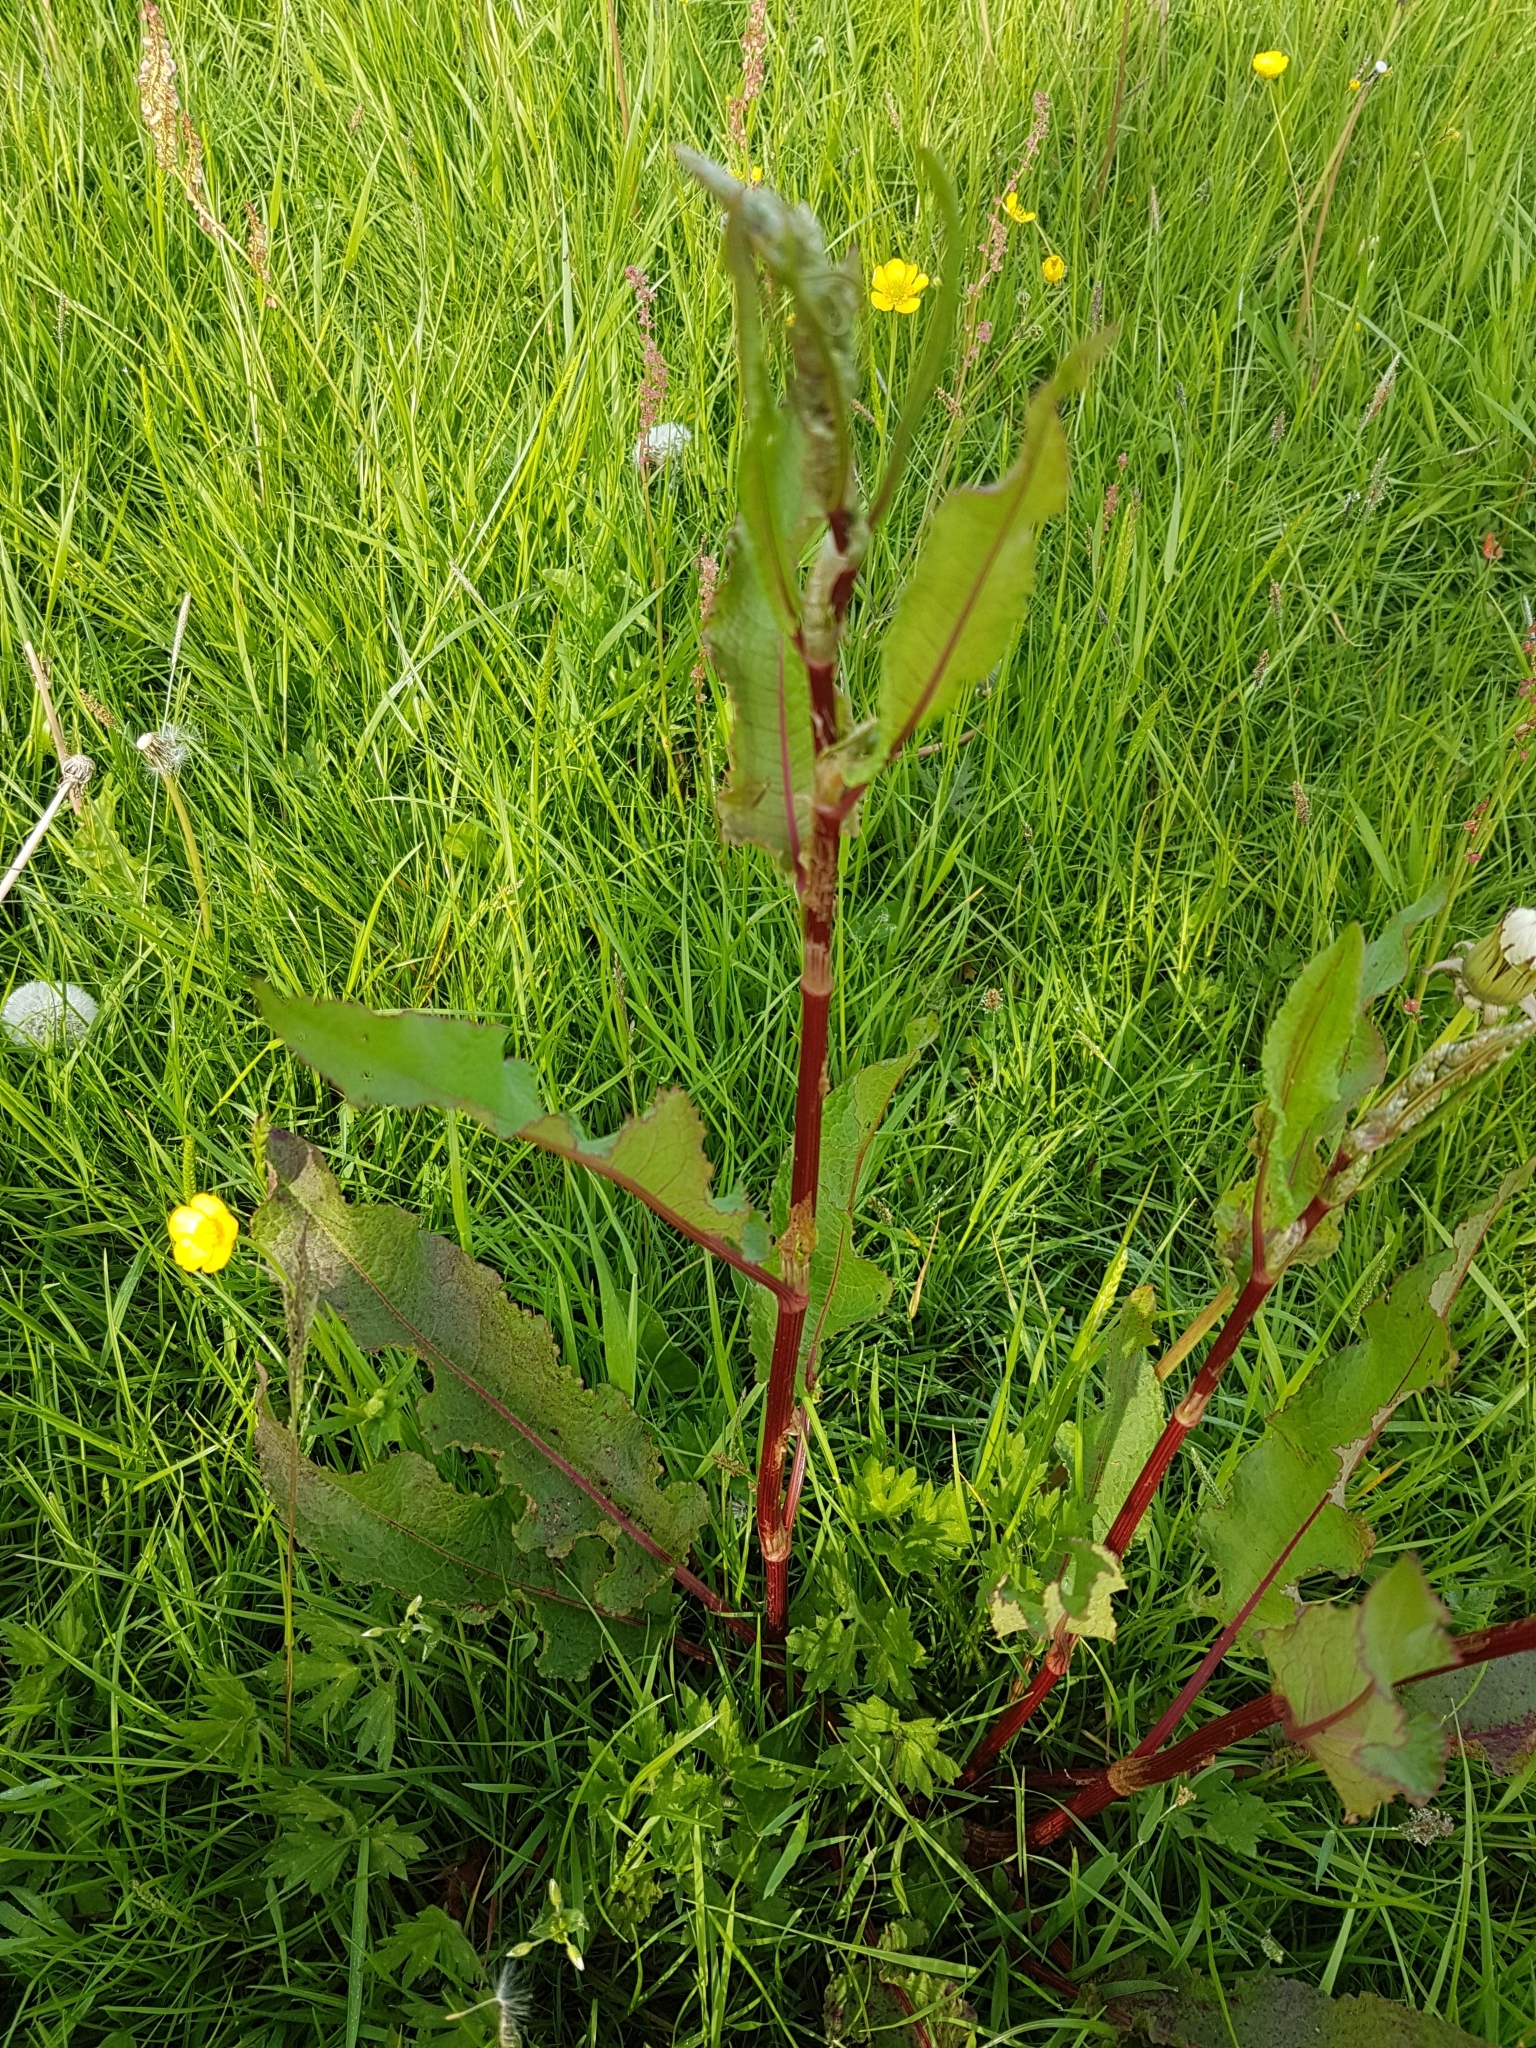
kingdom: Plantae
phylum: Tracheophyta
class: Magnoliopsida
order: Caryophyllales
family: Polygonaceae
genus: Rumex
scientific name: Rumex crispus
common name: Curled dock
